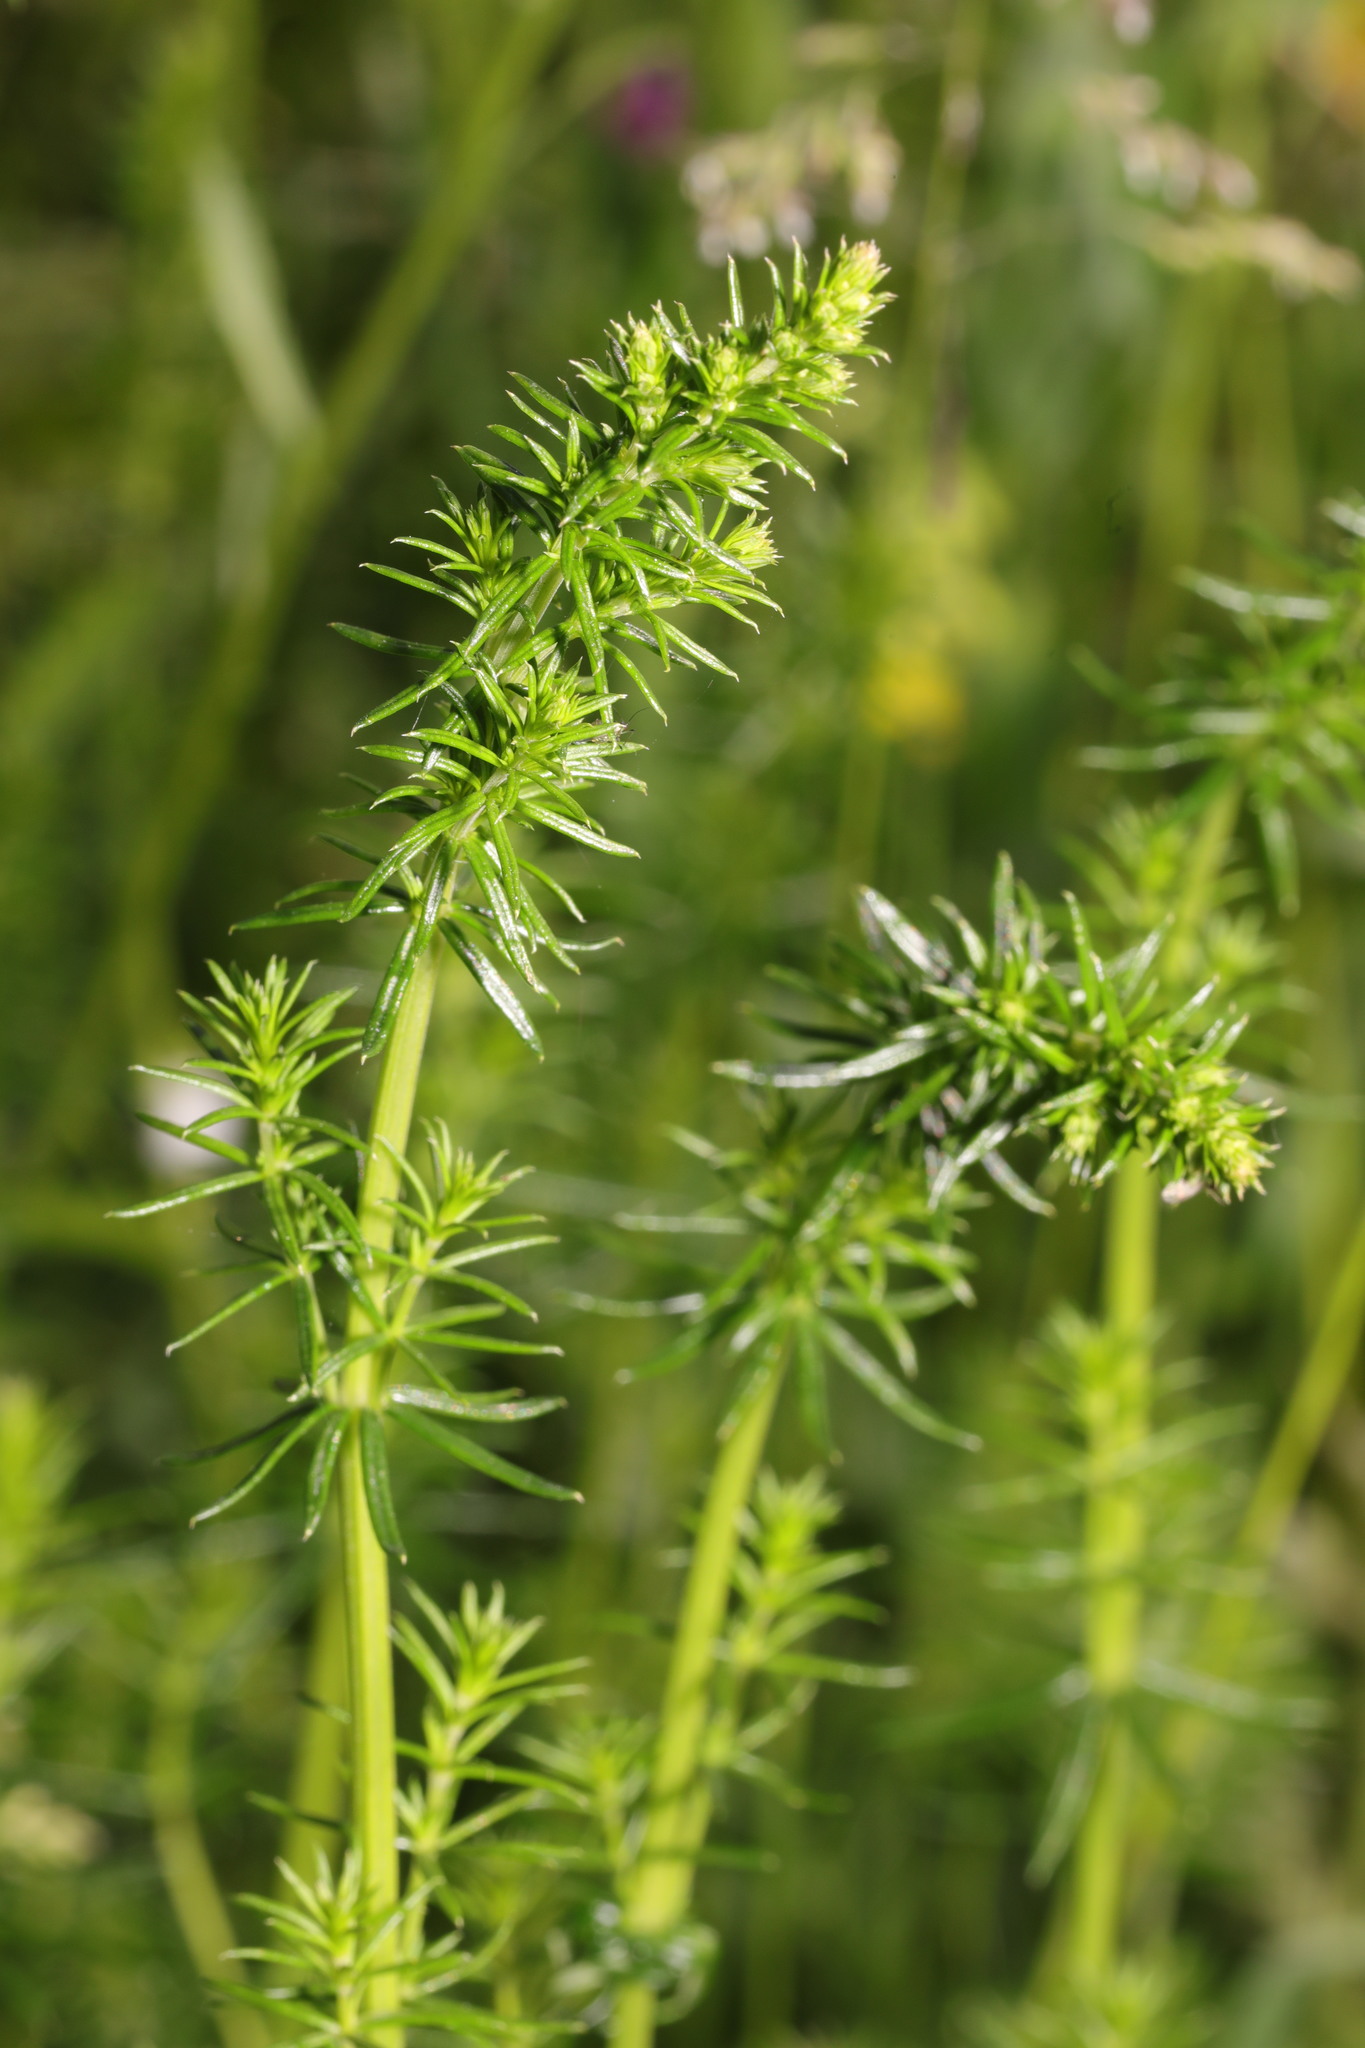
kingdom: Plantae
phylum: Tracheophyta
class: Magnoliopsida
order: Gentianales
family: Rubiaceae
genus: Galium
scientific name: Galium verum
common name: Lady's bedstraw
